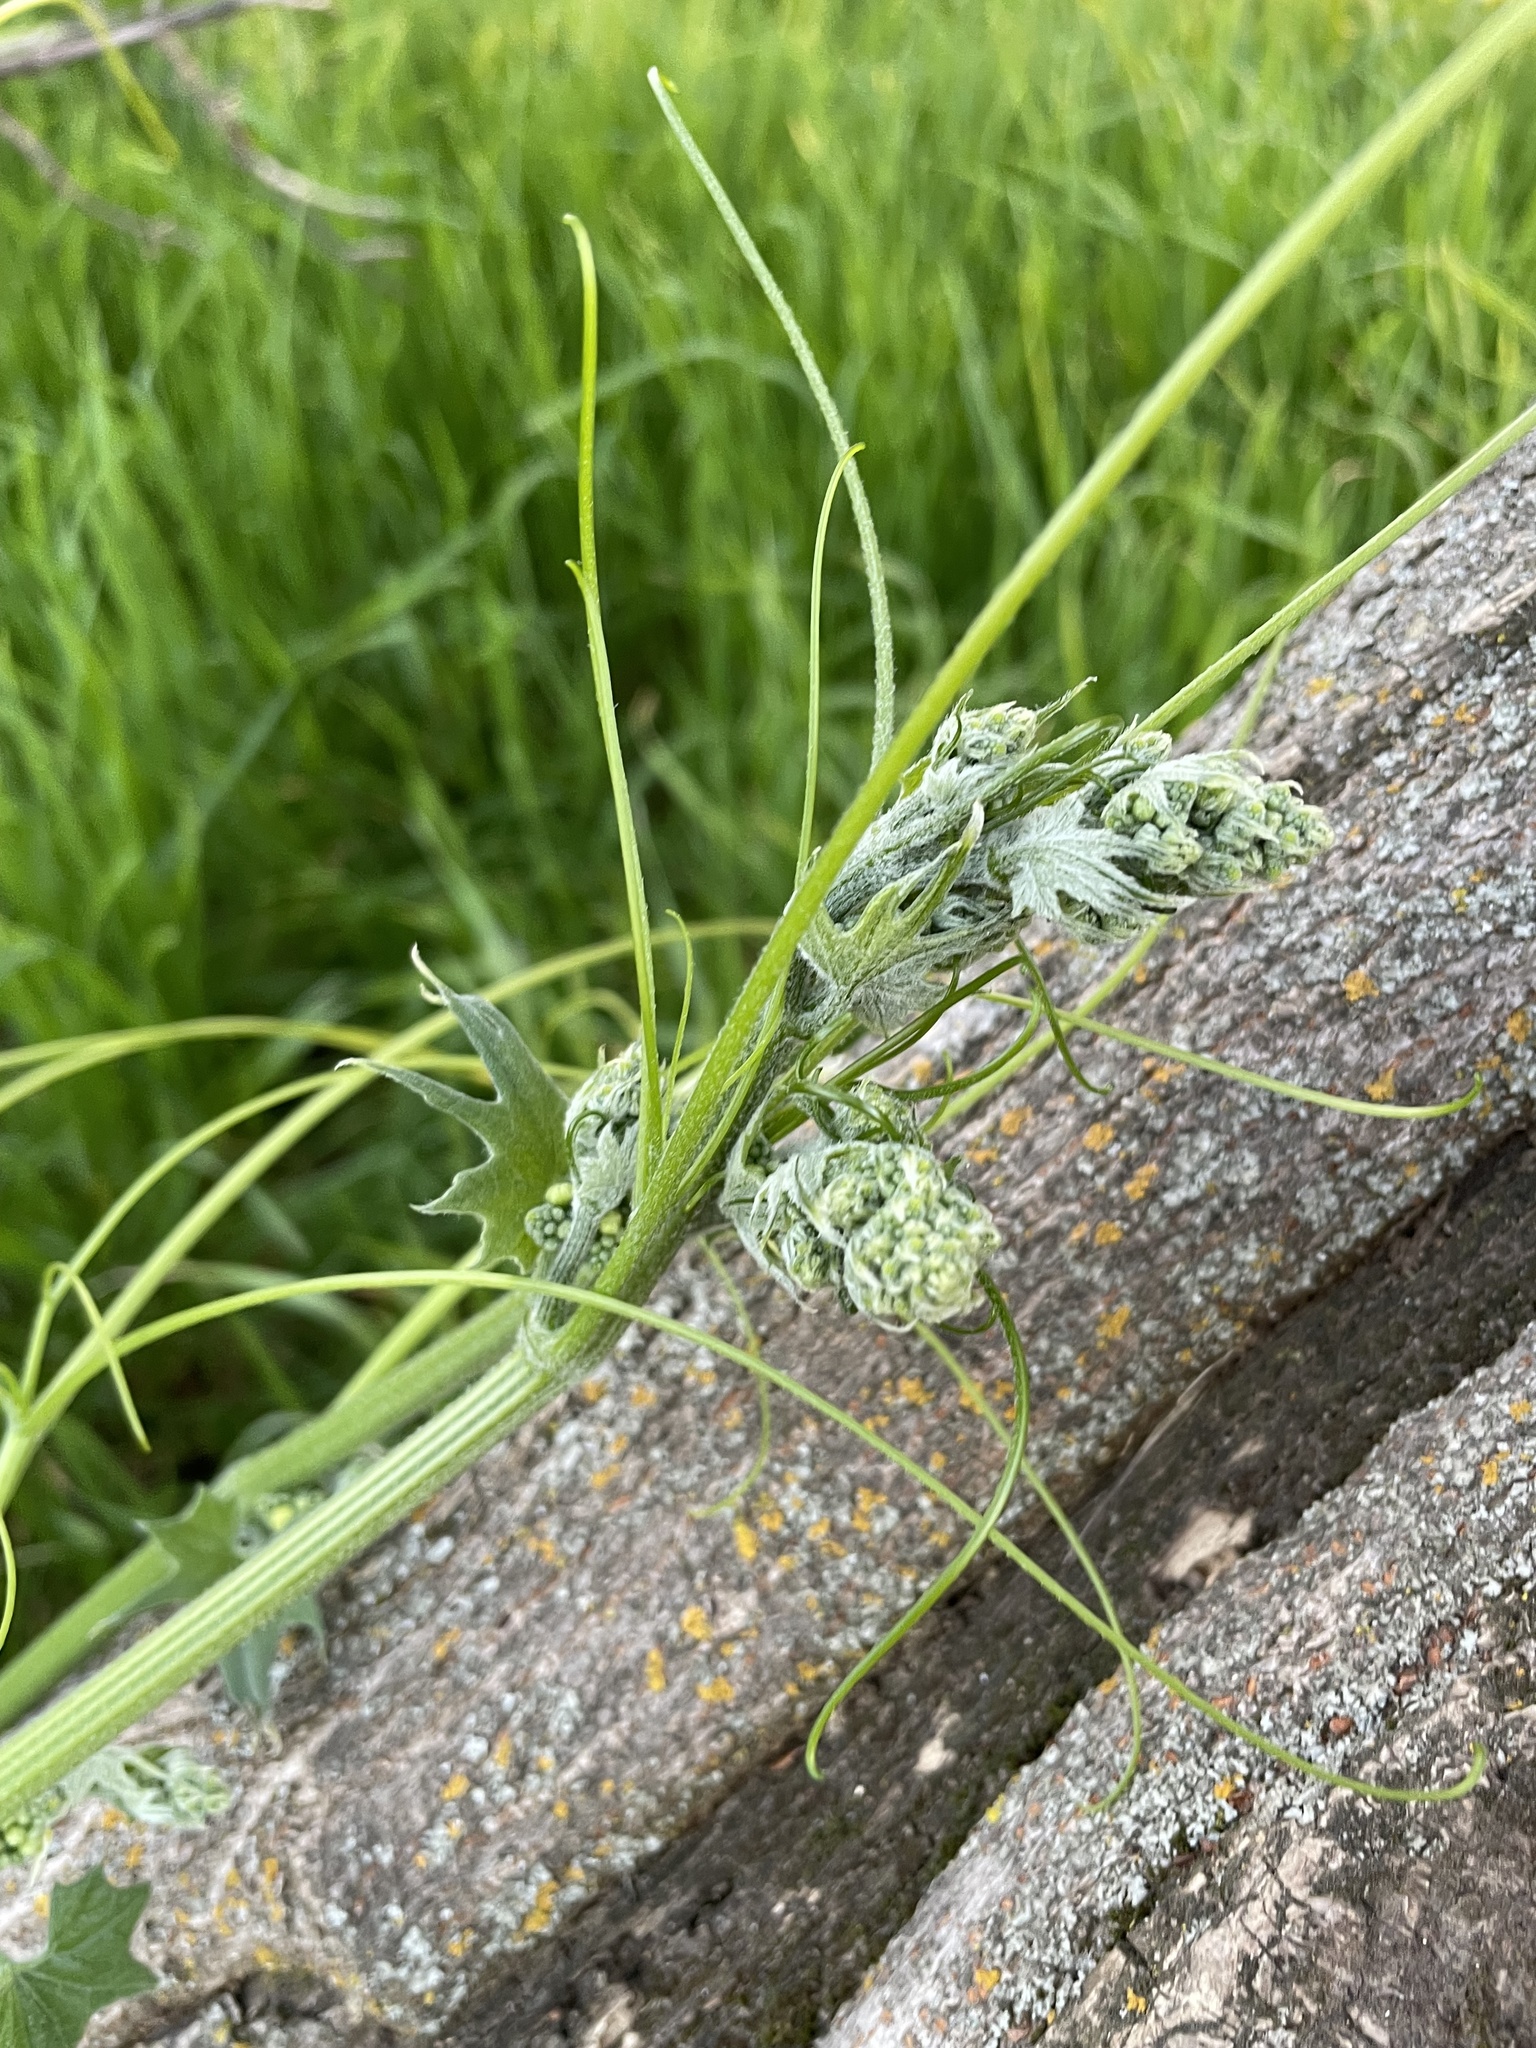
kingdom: Plantae
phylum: Tracheophyta
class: Magnoliopsida
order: Cucurbitales
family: Cucurbitaceae
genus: Marah
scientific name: Marah fabacea
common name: California manroot
